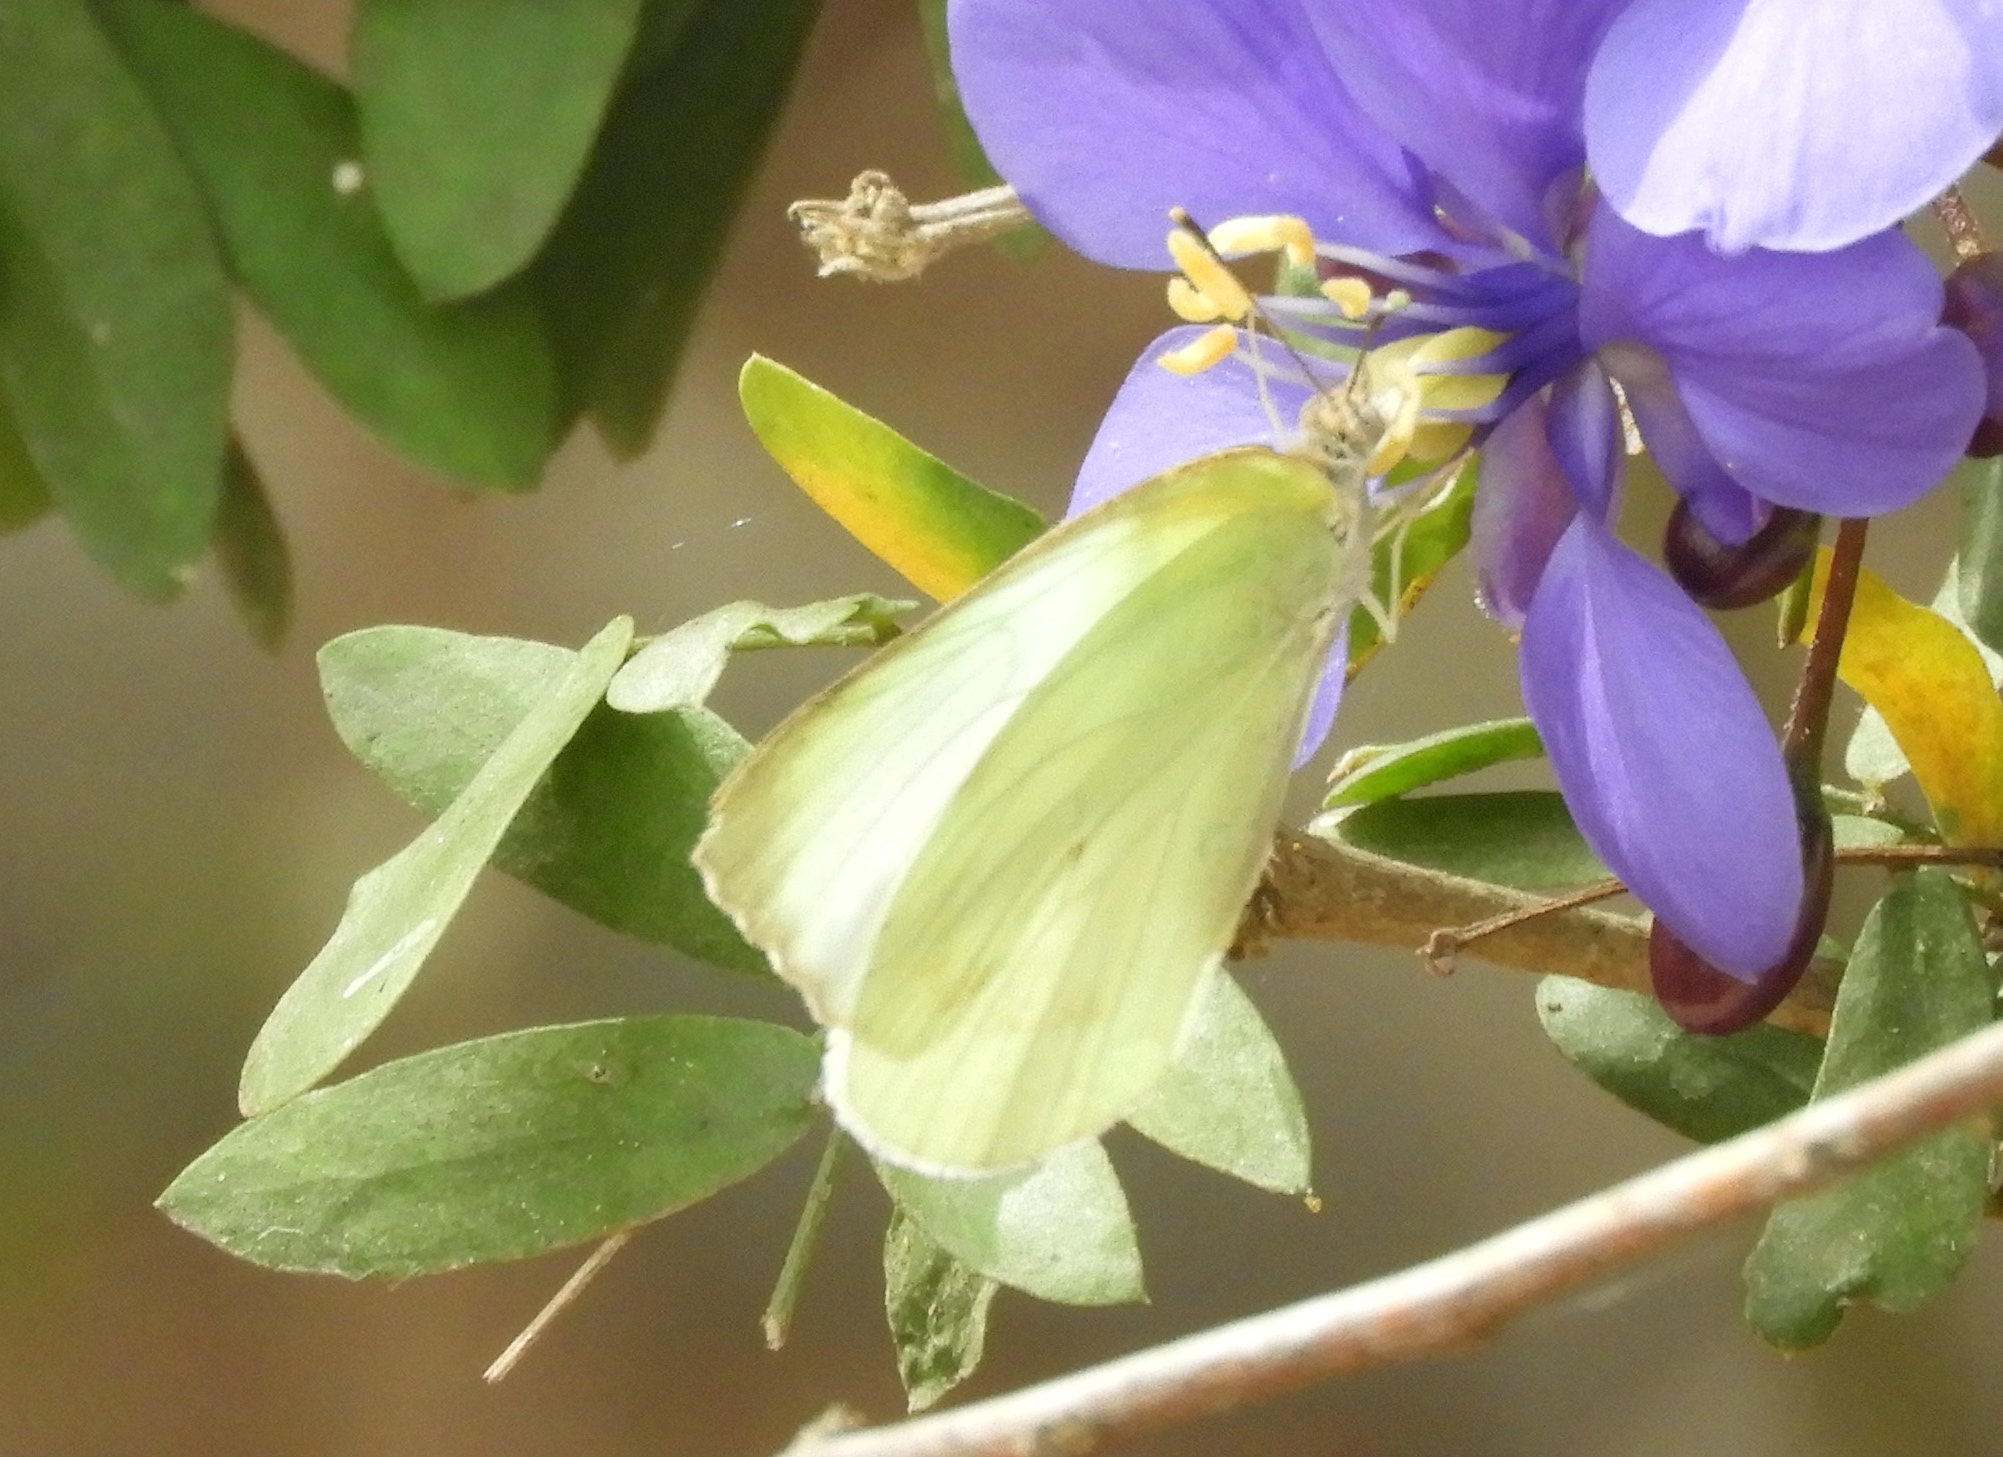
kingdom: Animalia
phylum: Arthropoda
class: Insecta
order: Lepidoptera
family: Pieridae
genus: Kricogonia
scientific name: Kricogonia lyside
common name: Guayacan sulphur,
